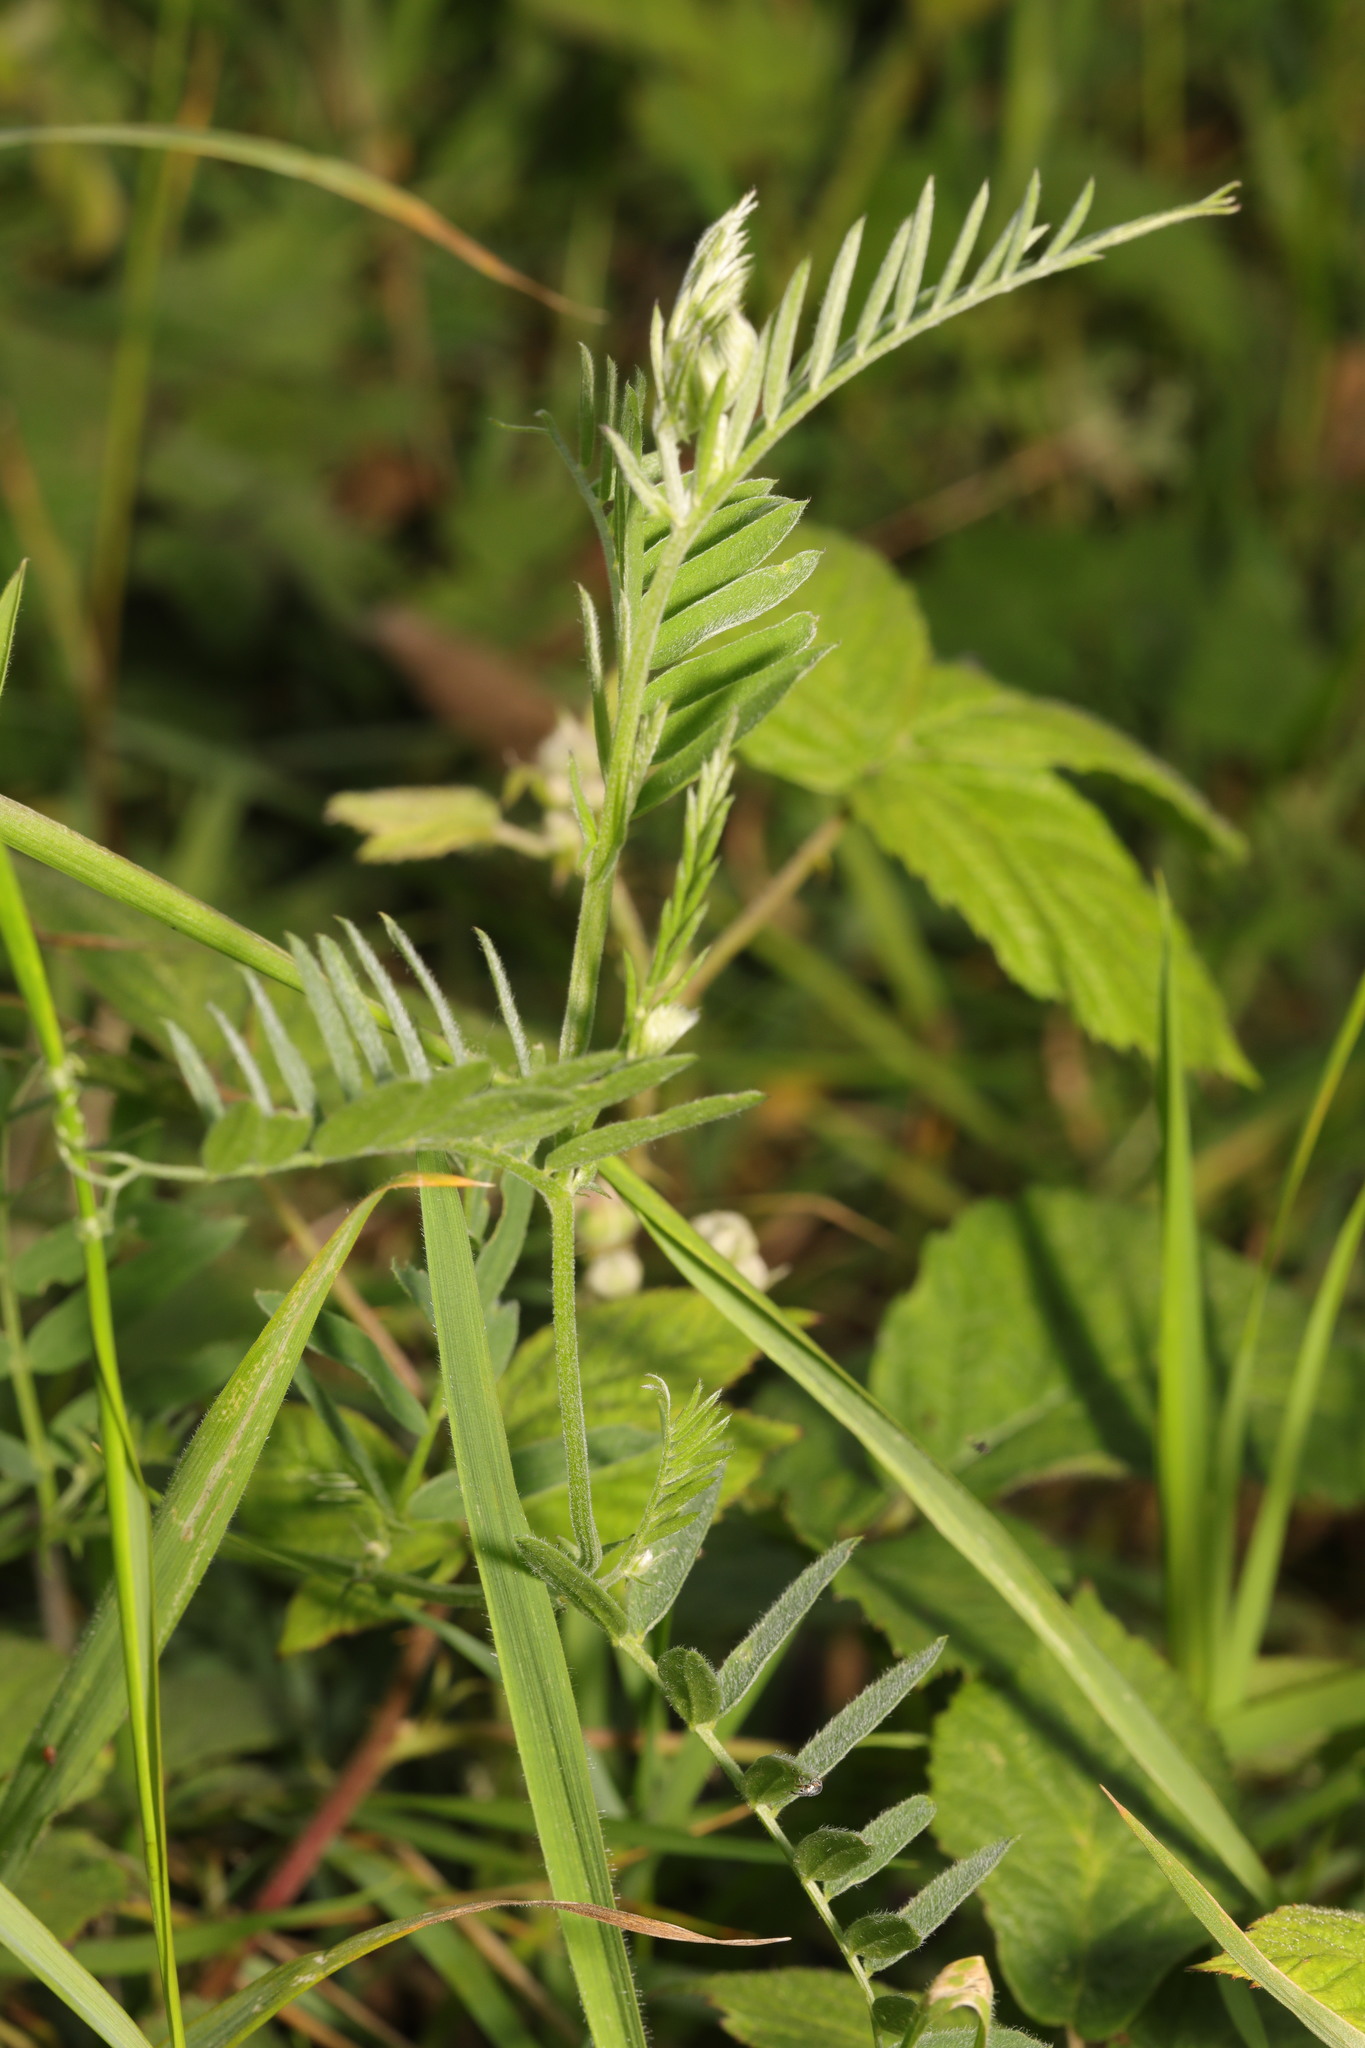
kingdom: Plantae
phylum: Tracheophyta
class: Magnoliopsida
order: Fabales
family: Fabaceae
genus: Vicia
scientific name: Vicia cracca
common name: Bird vetch
